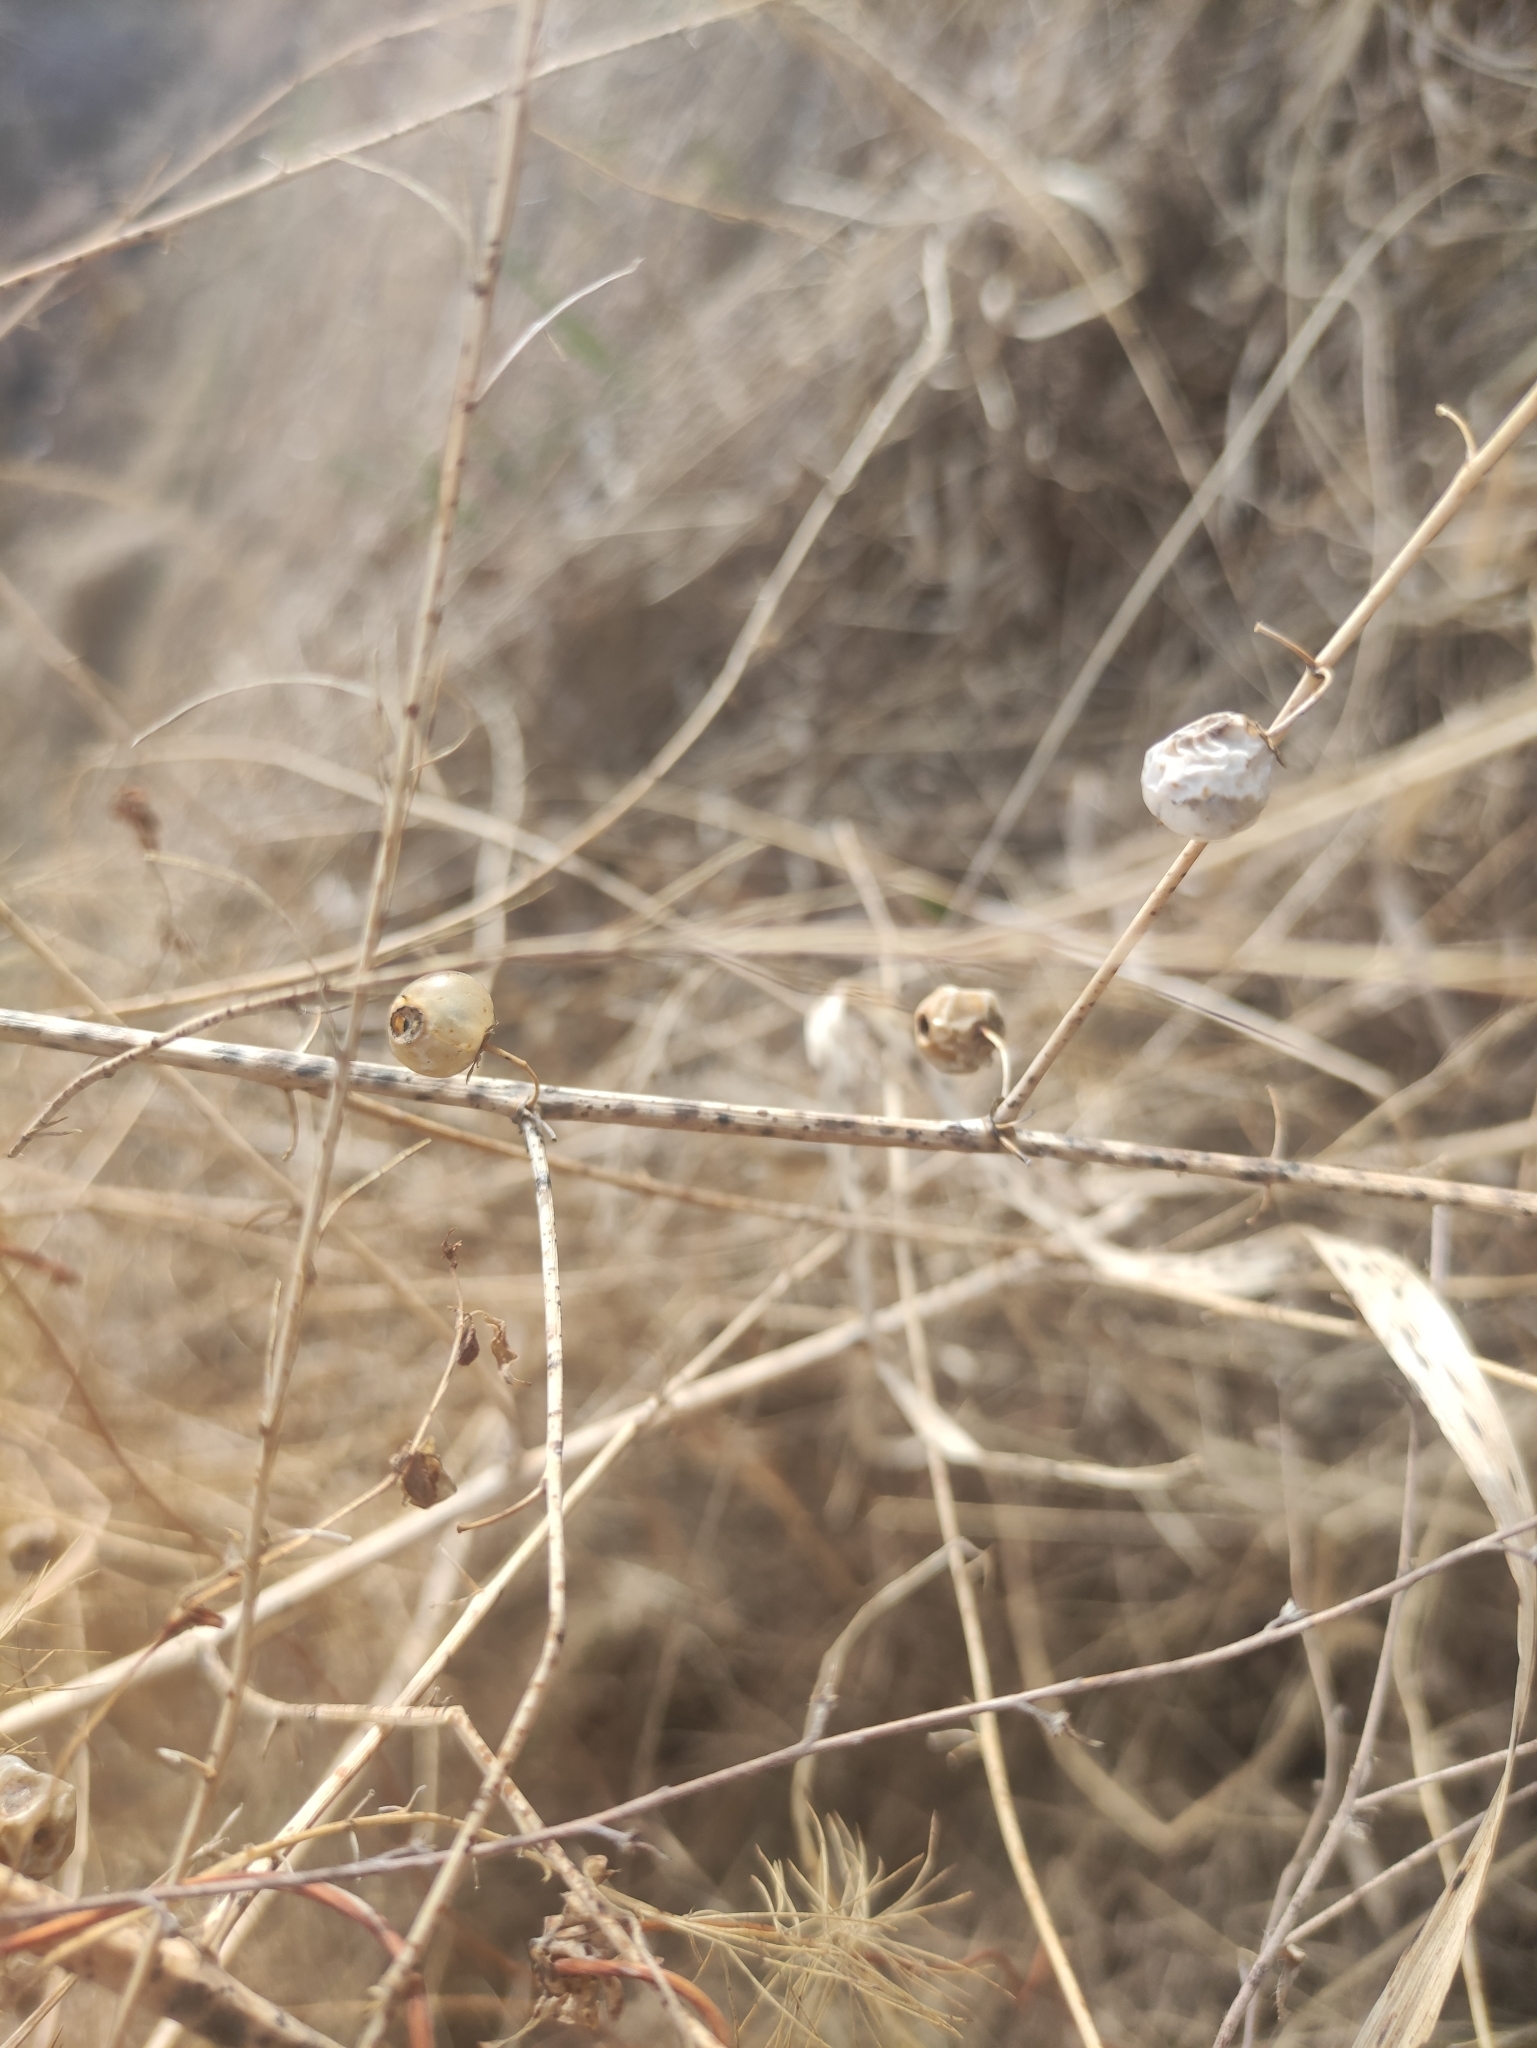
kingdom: Plantae
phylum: Tracheophyta
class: Liliopsida
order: Asparagales
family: Asparagaceae
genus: Asparagus
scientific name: Asparagus officinalis
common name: Garden asparagus
